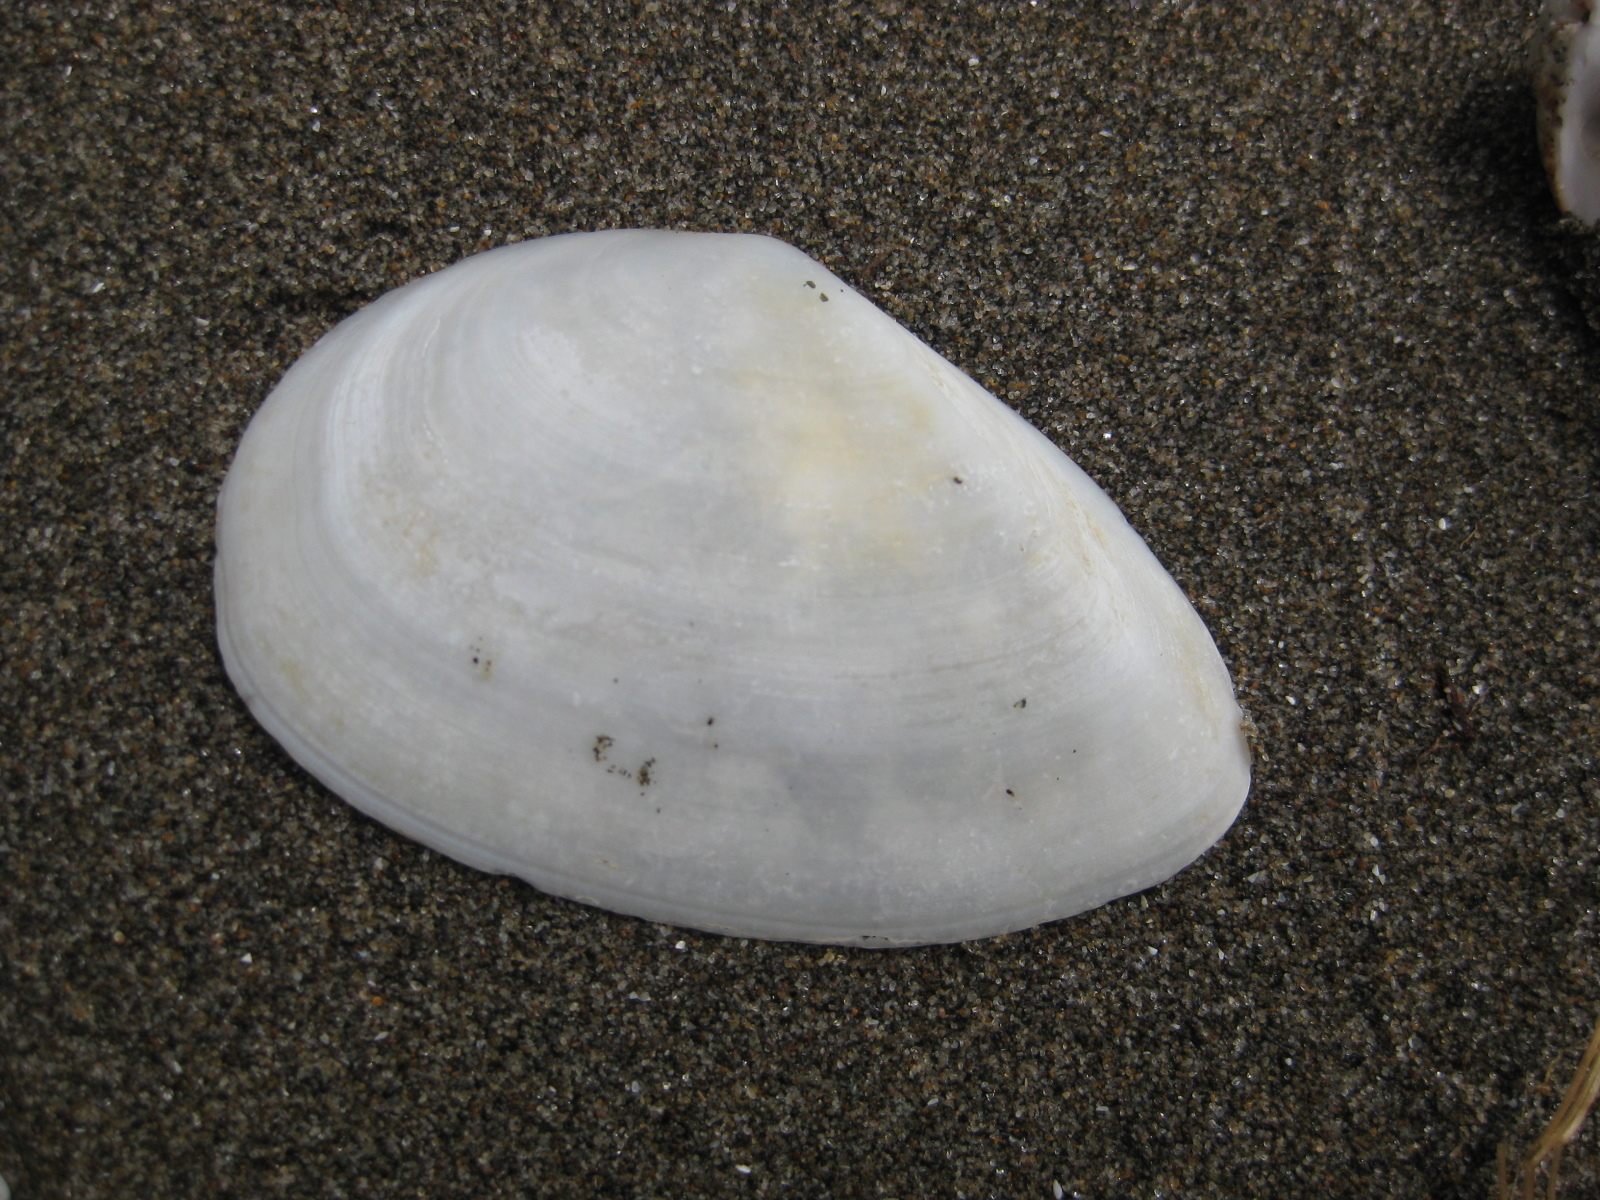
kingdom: Animalia
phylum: Mollusca
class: Bivalvia
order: Cardiida
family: Tellinidae
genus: Bartschicoma
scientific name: Bartschicoma gaimardi
